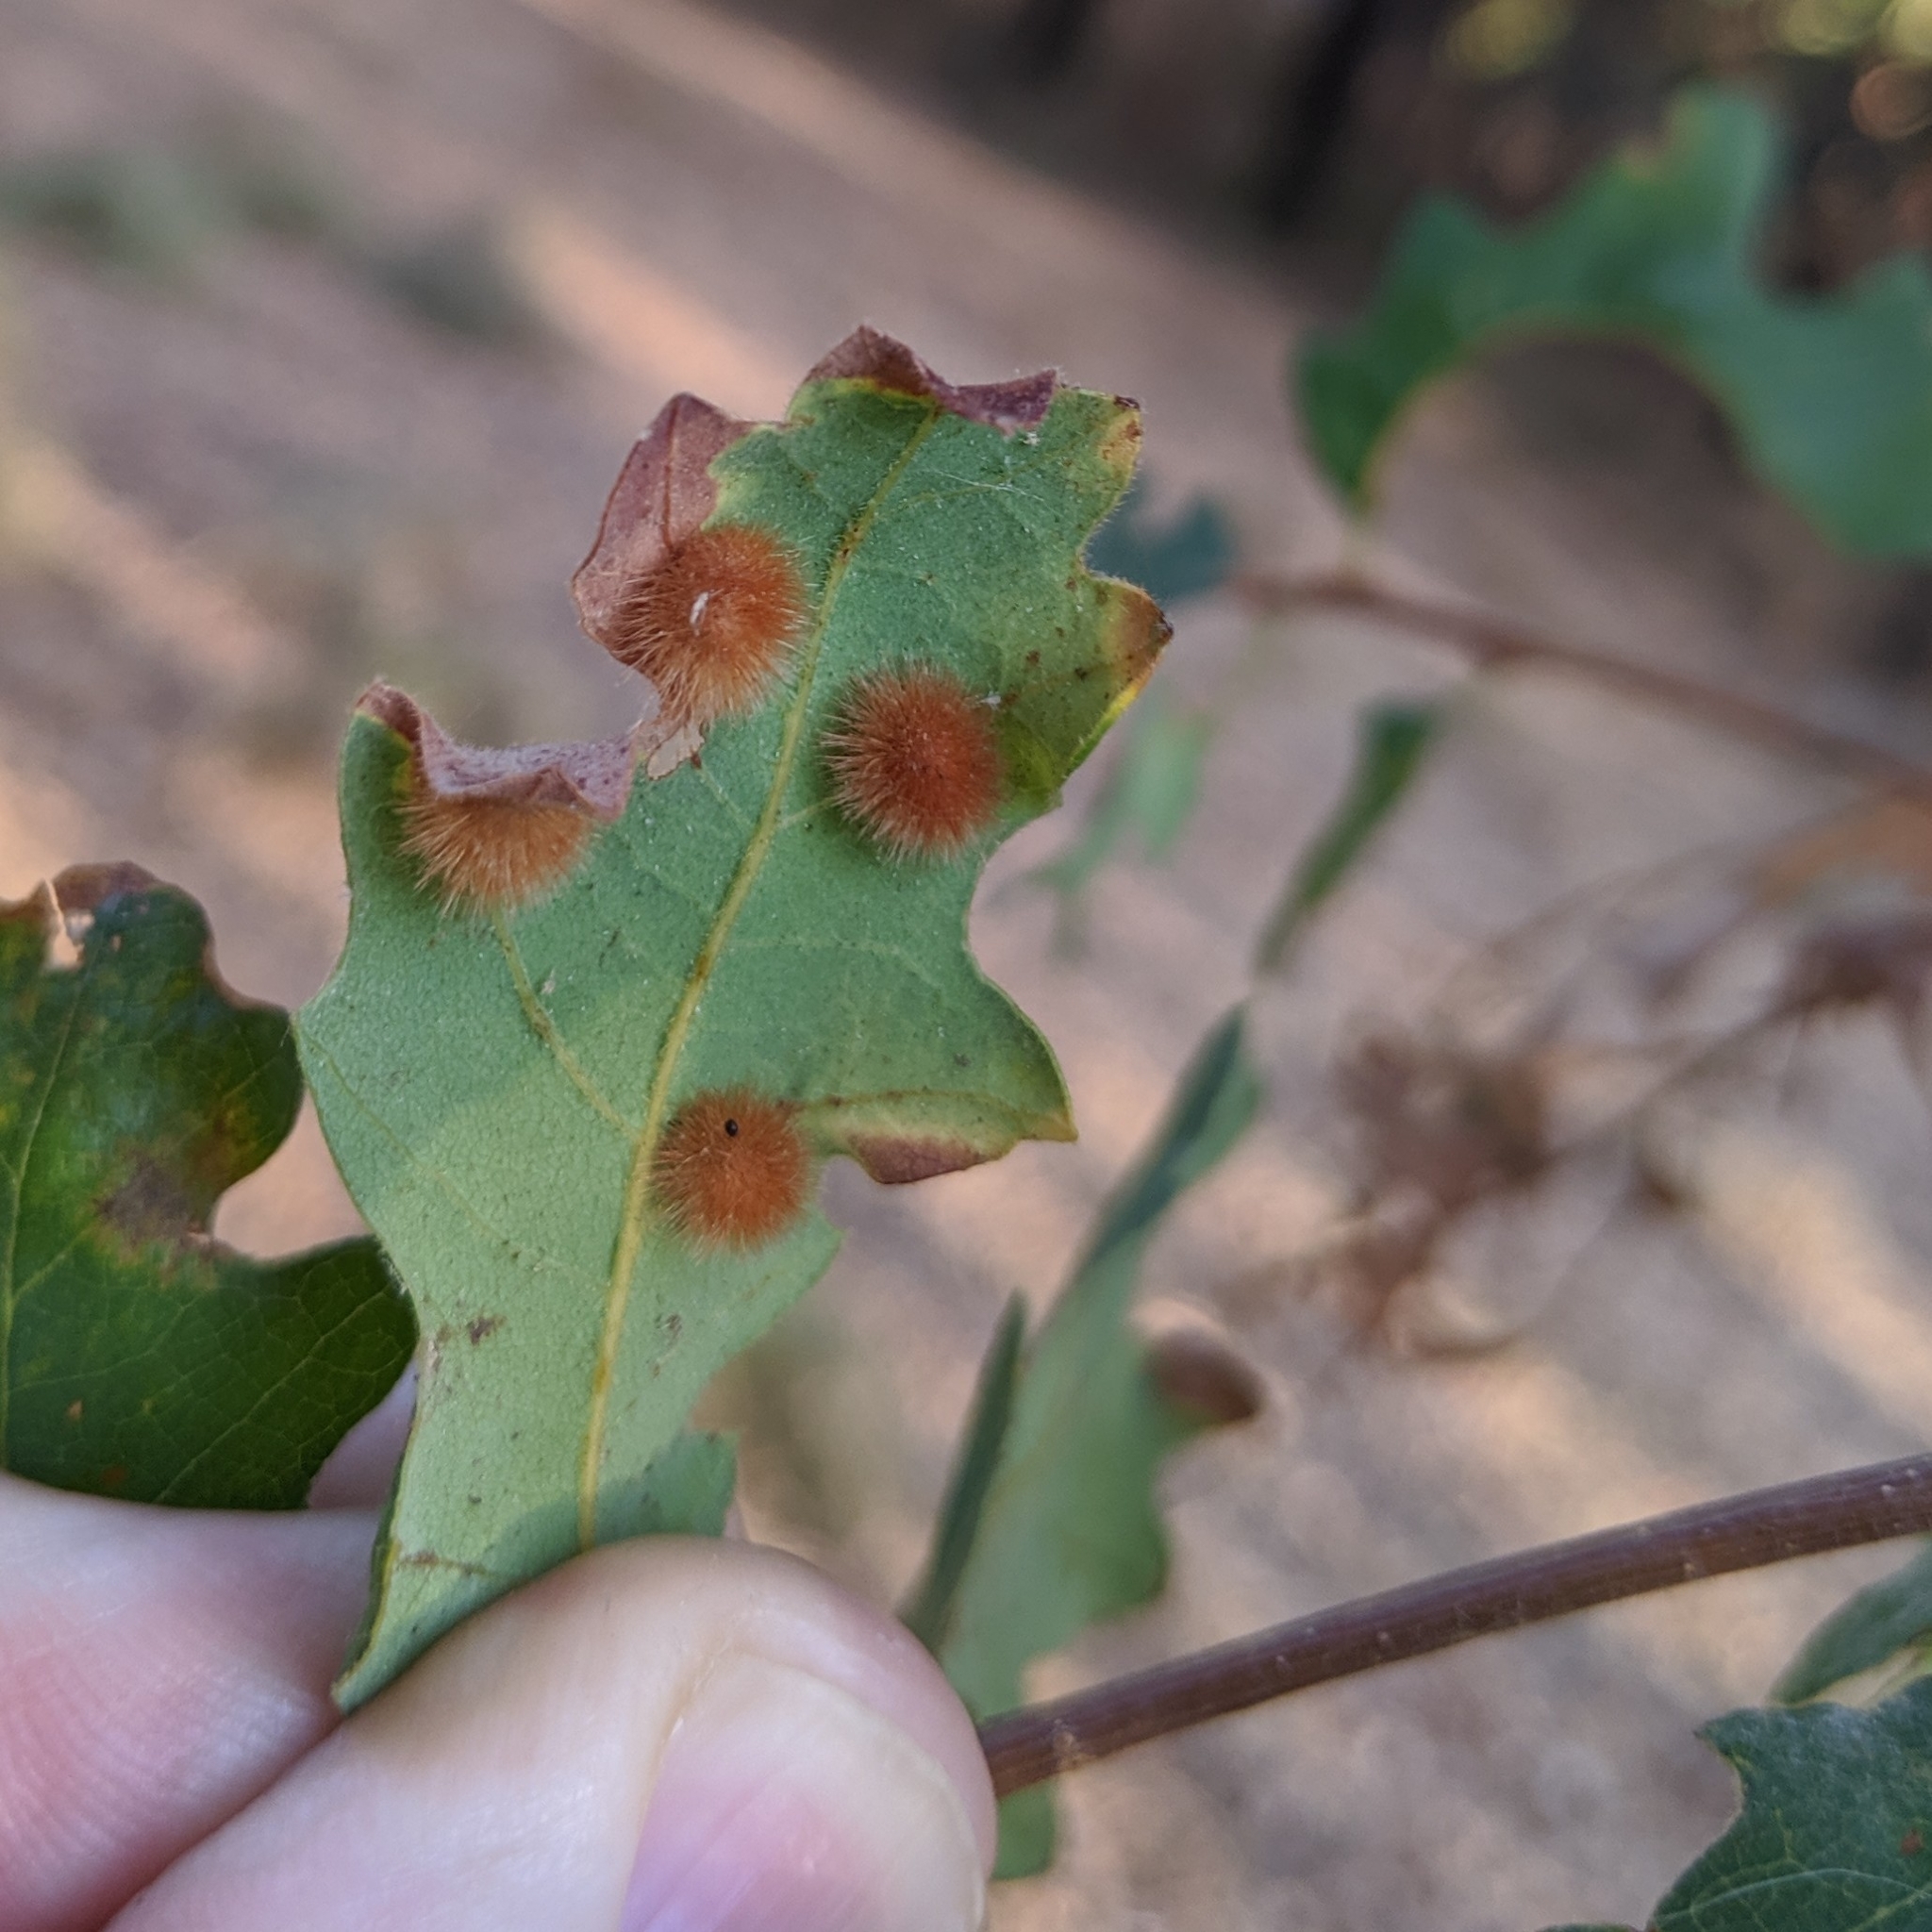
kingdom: Animalia
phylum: Arthropoda
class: Insecta
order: Hymenoptera
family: Cynipidae
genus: Atrusca
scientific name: Atrusca
